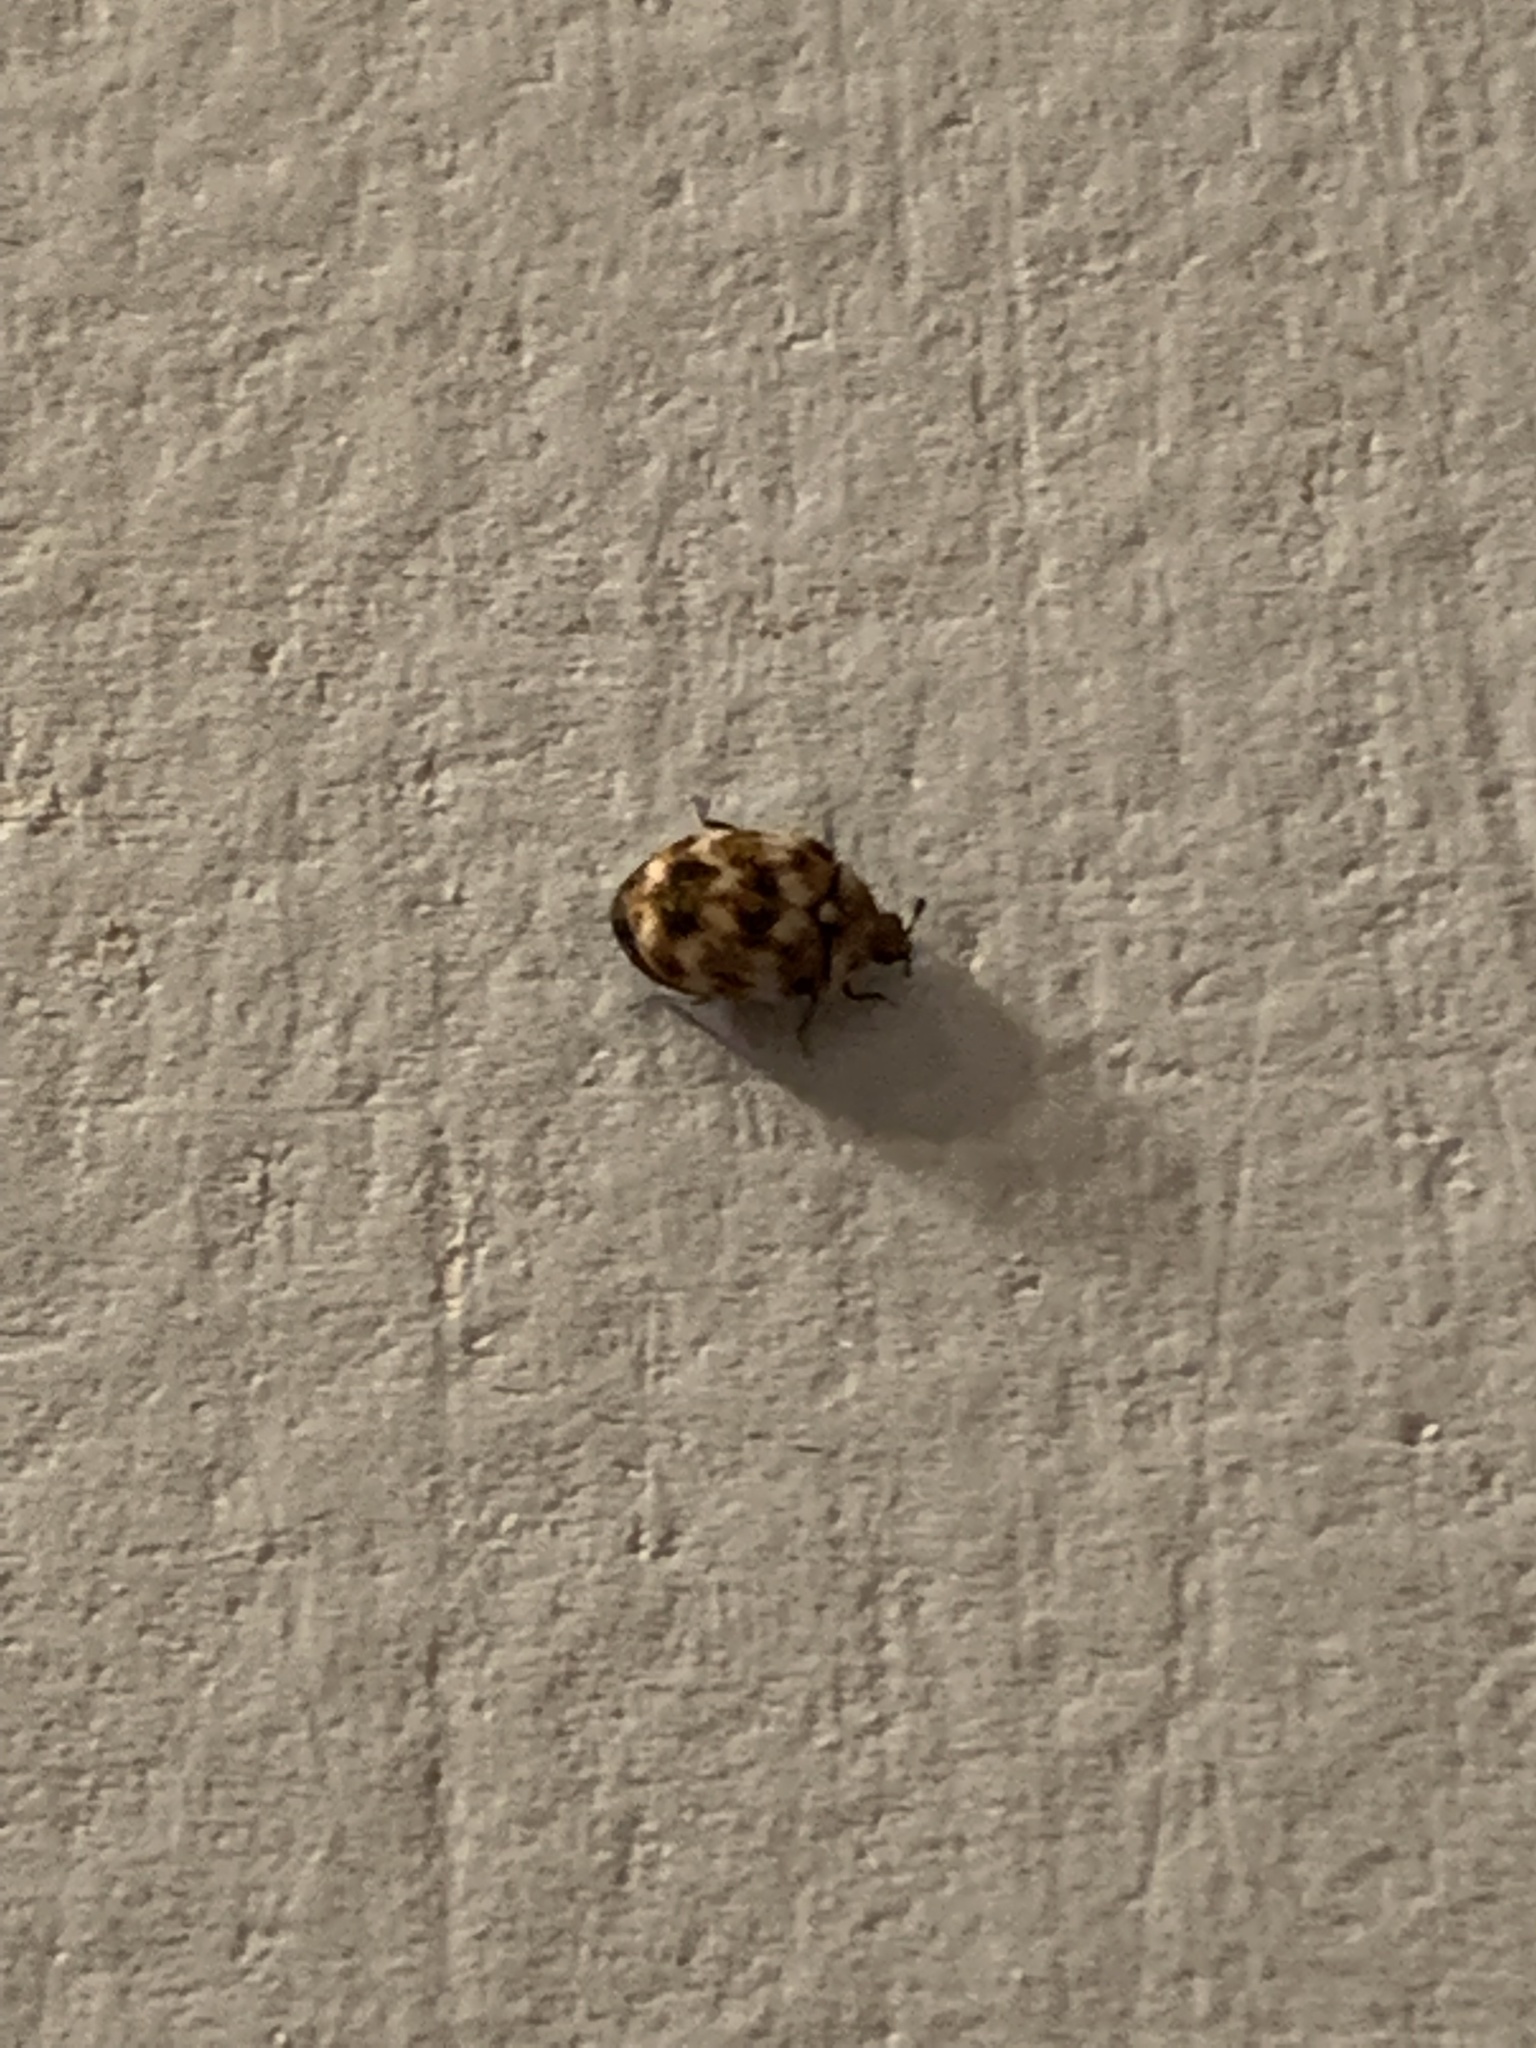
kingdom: Animalia
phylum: Arthropoda
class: Insecta
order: Coleoptera
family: Dermestidae
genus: Anthrenus
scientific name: Anthrenus verbasci
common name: Varied carpet beetle
